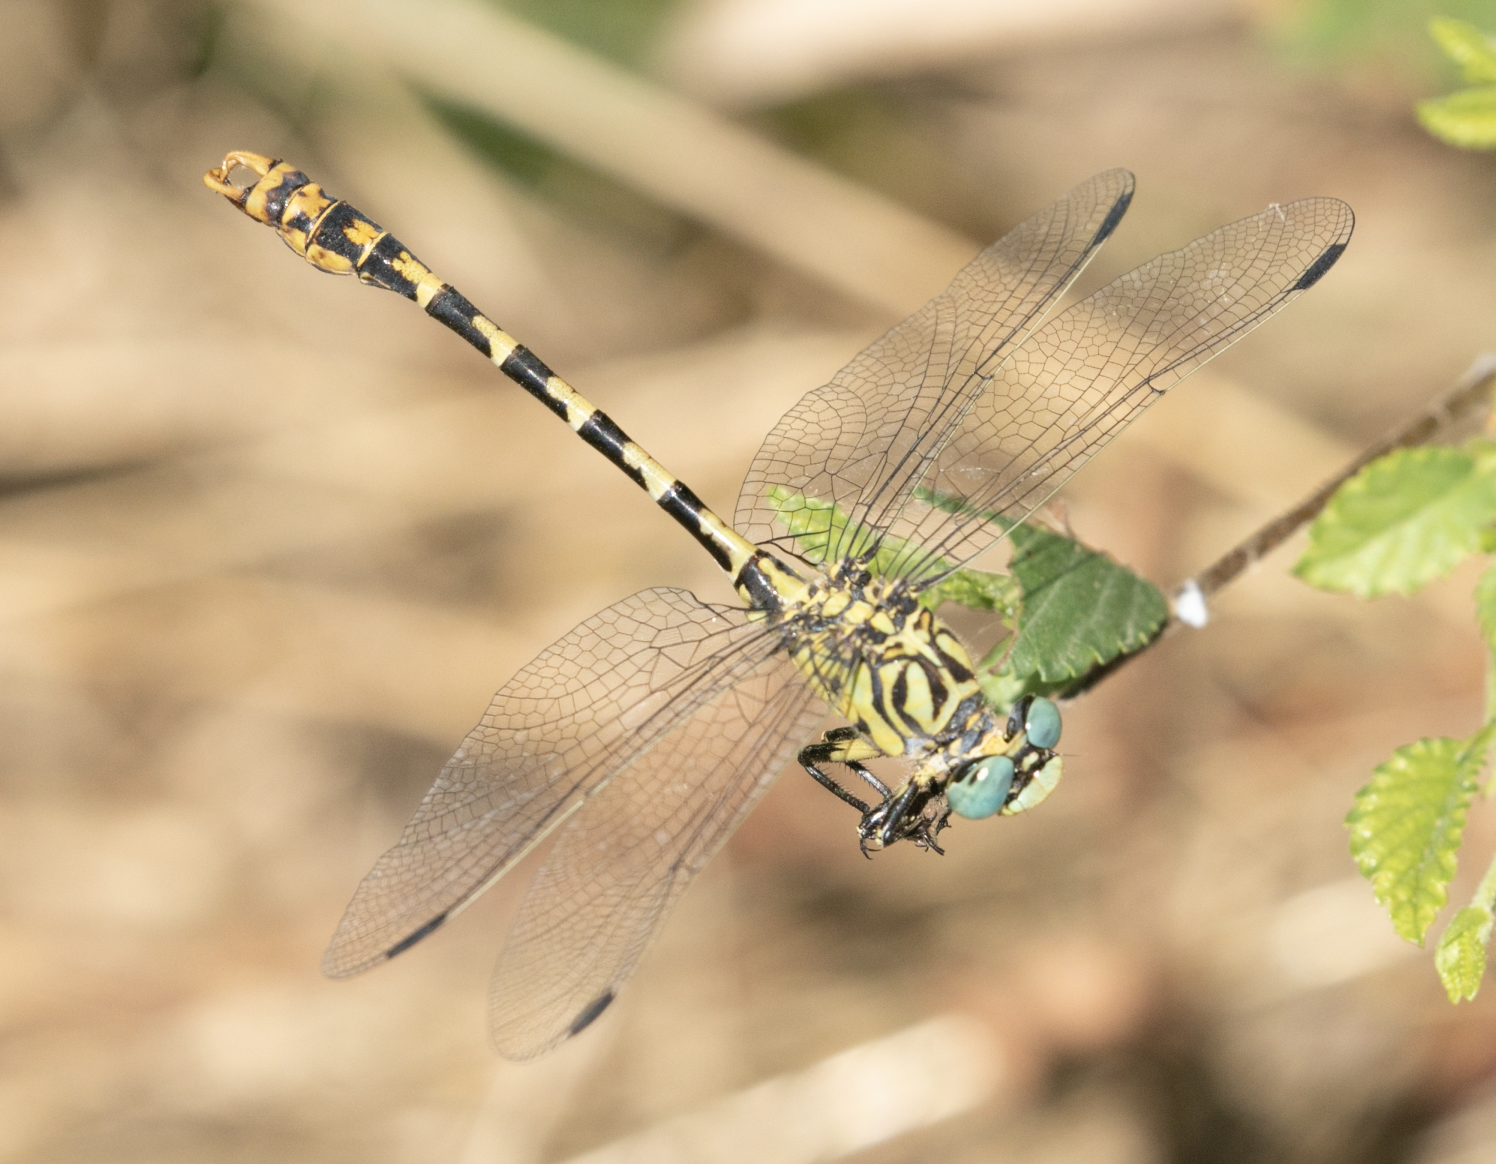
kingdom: Animalia
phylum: Arthropoda
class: Insecta
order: Odonata
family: Gomphidae
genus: Onychogomphus
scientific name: Onychogomphus forcipatus
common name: Small pincertail
